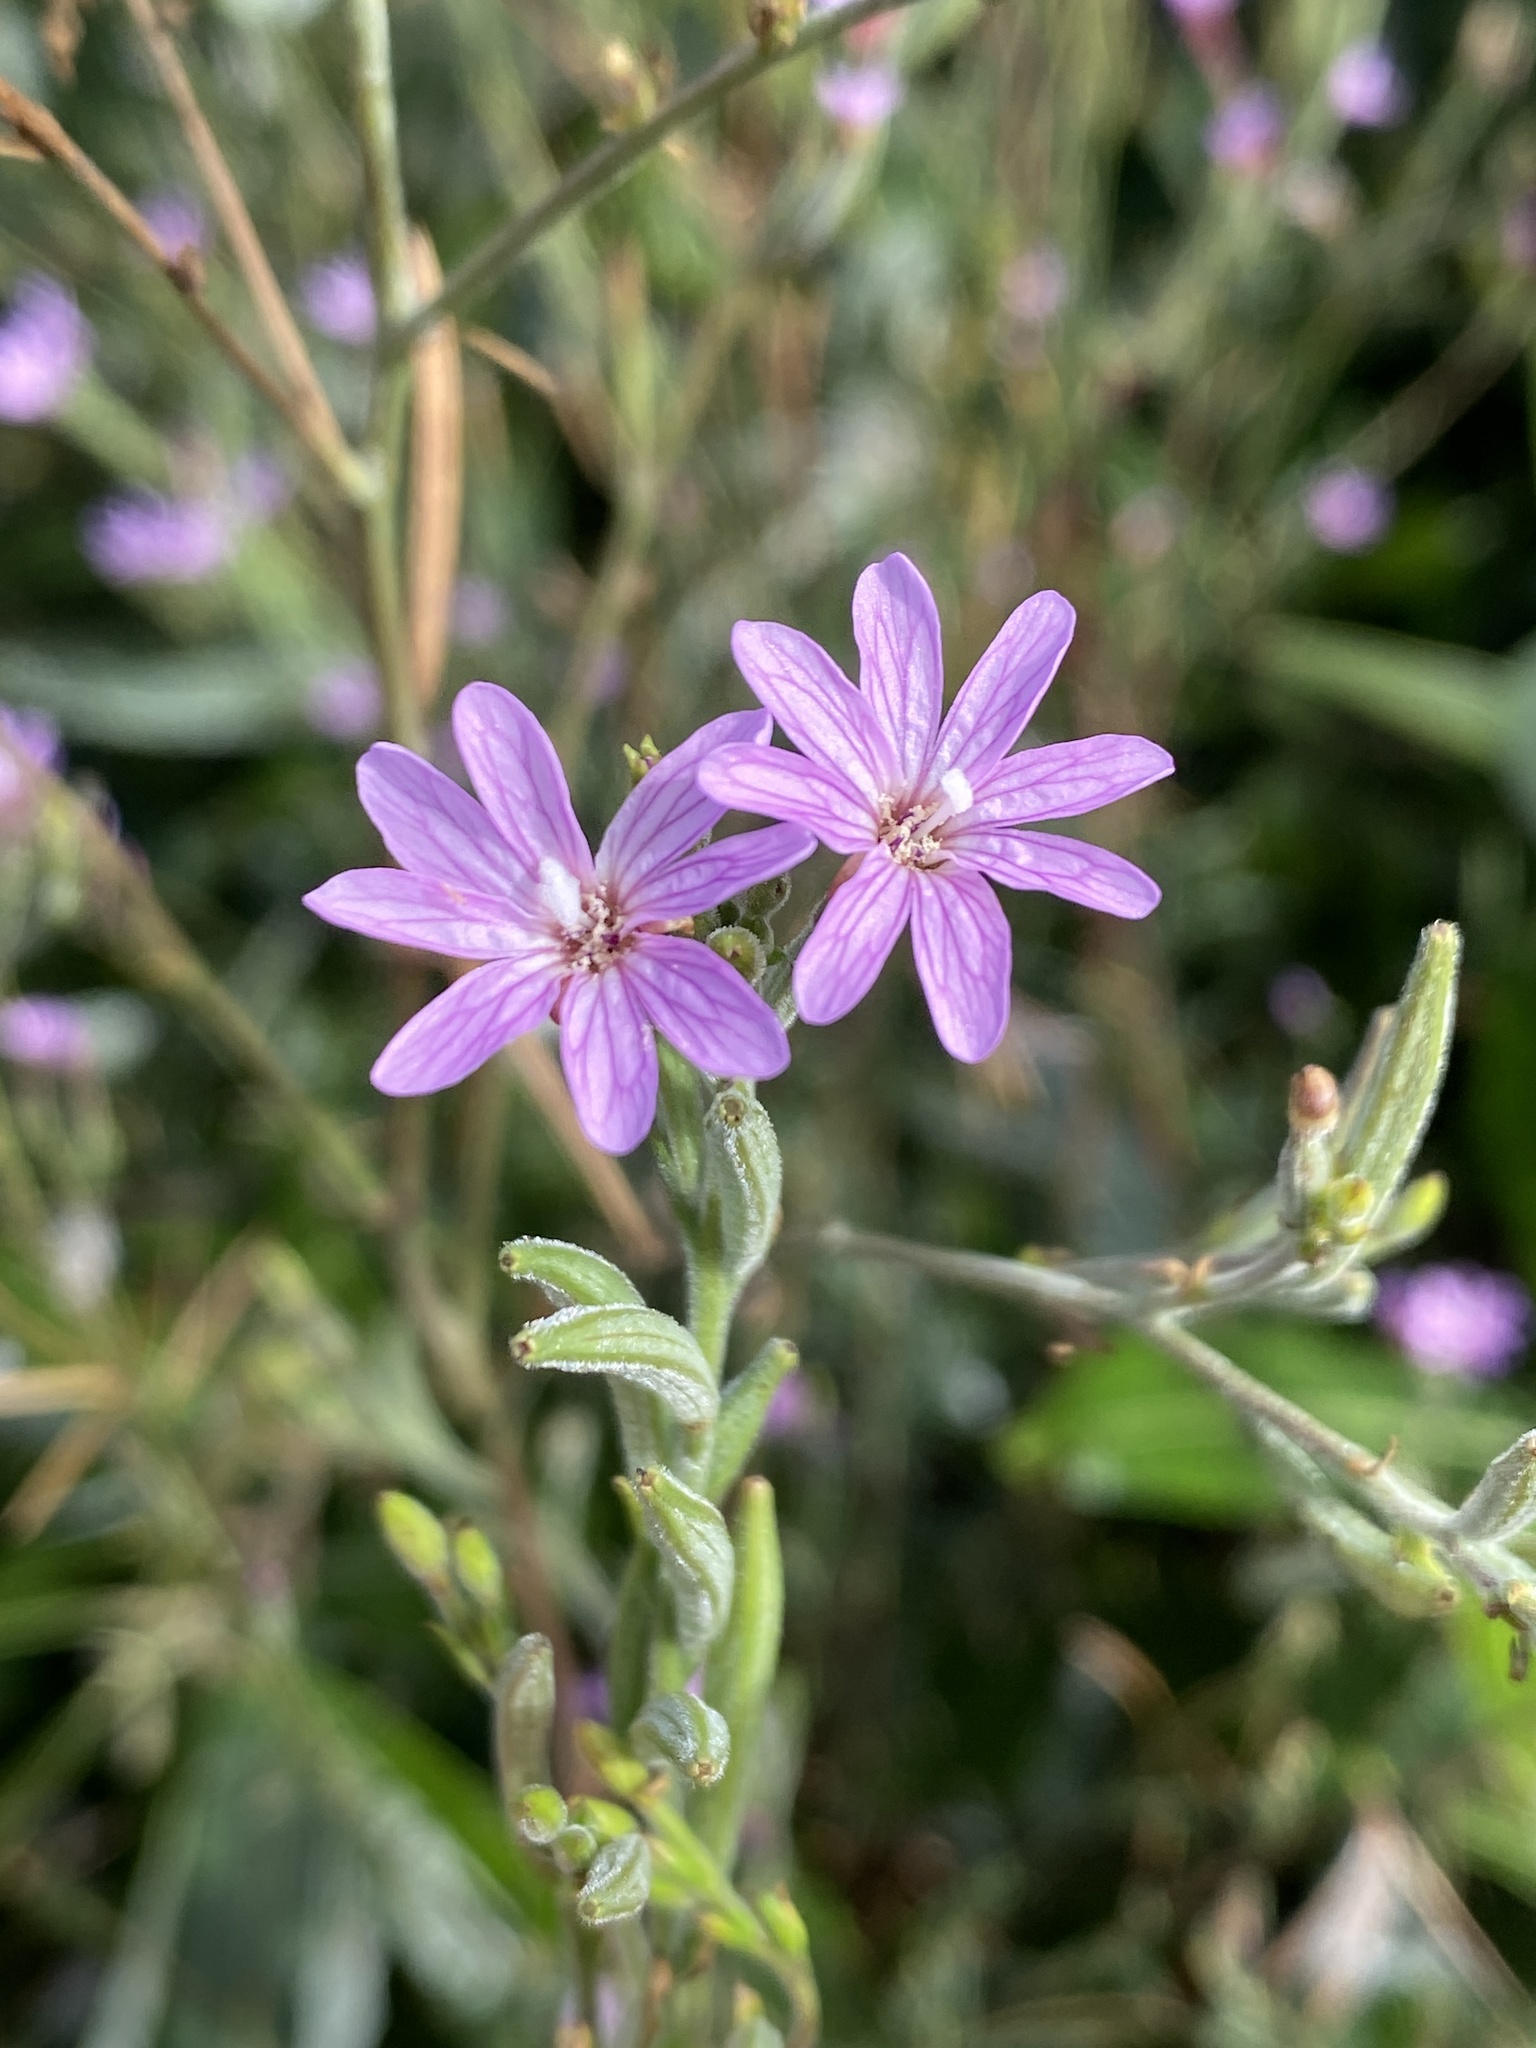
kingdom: Plantae
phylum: Tracheophyta
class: Magnoliopsida
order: Myrtales
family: Onagraceae
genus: Epilobium
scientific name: Epilobium brachycarpum
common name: Annual willowherb
